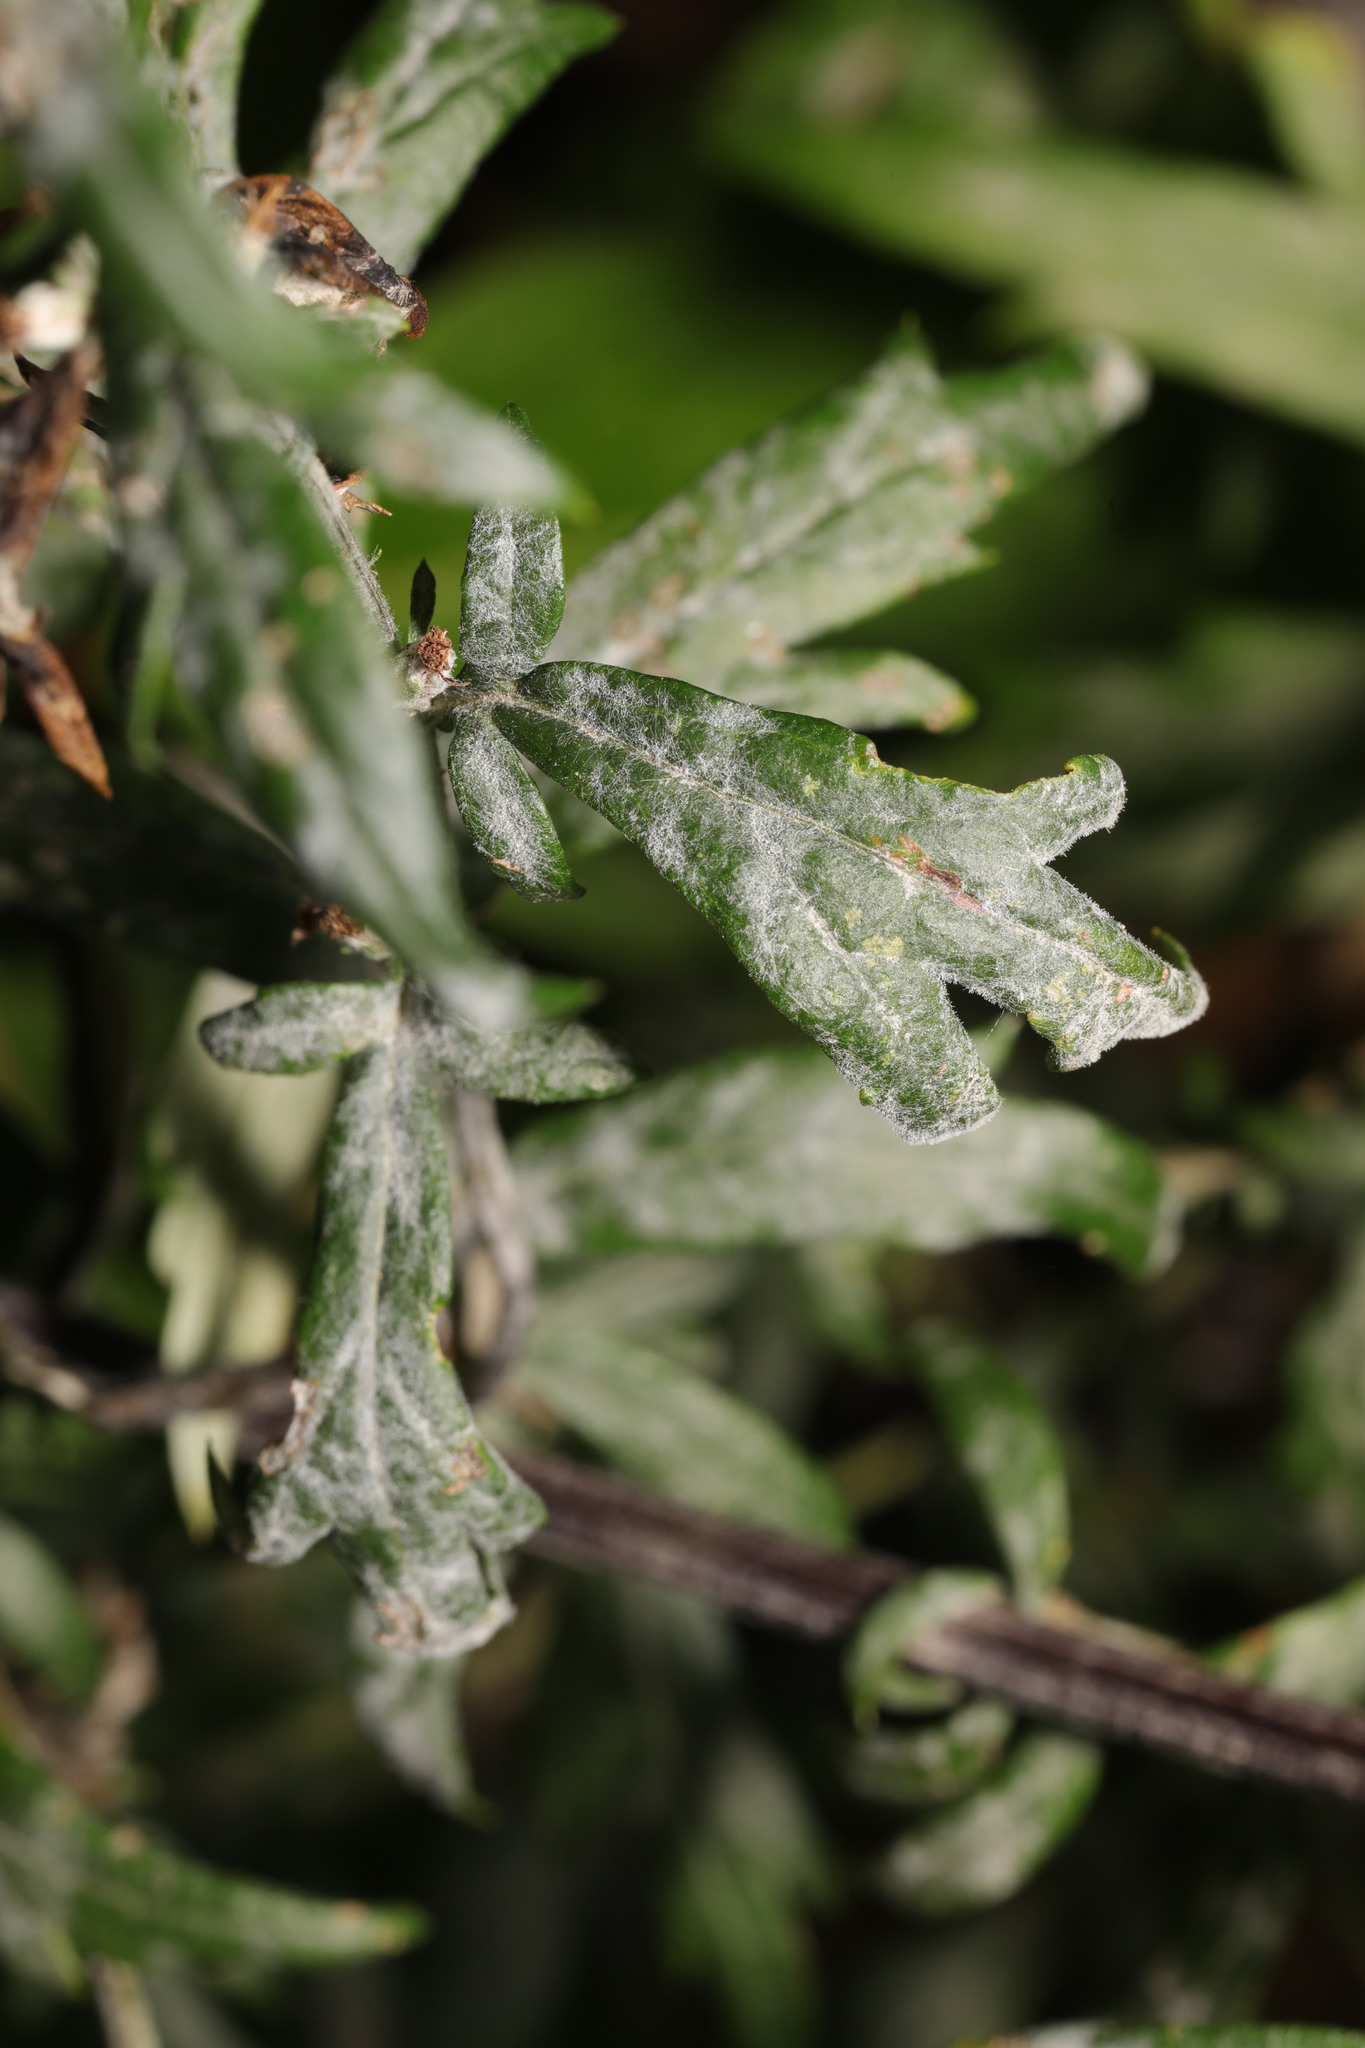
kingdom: Fungi
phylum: Ascomycota
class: Leotiomycetes
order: Helotiales
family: Erysiphaceae
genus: Golovinomyces
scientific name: Golovinomyces artemisiae
